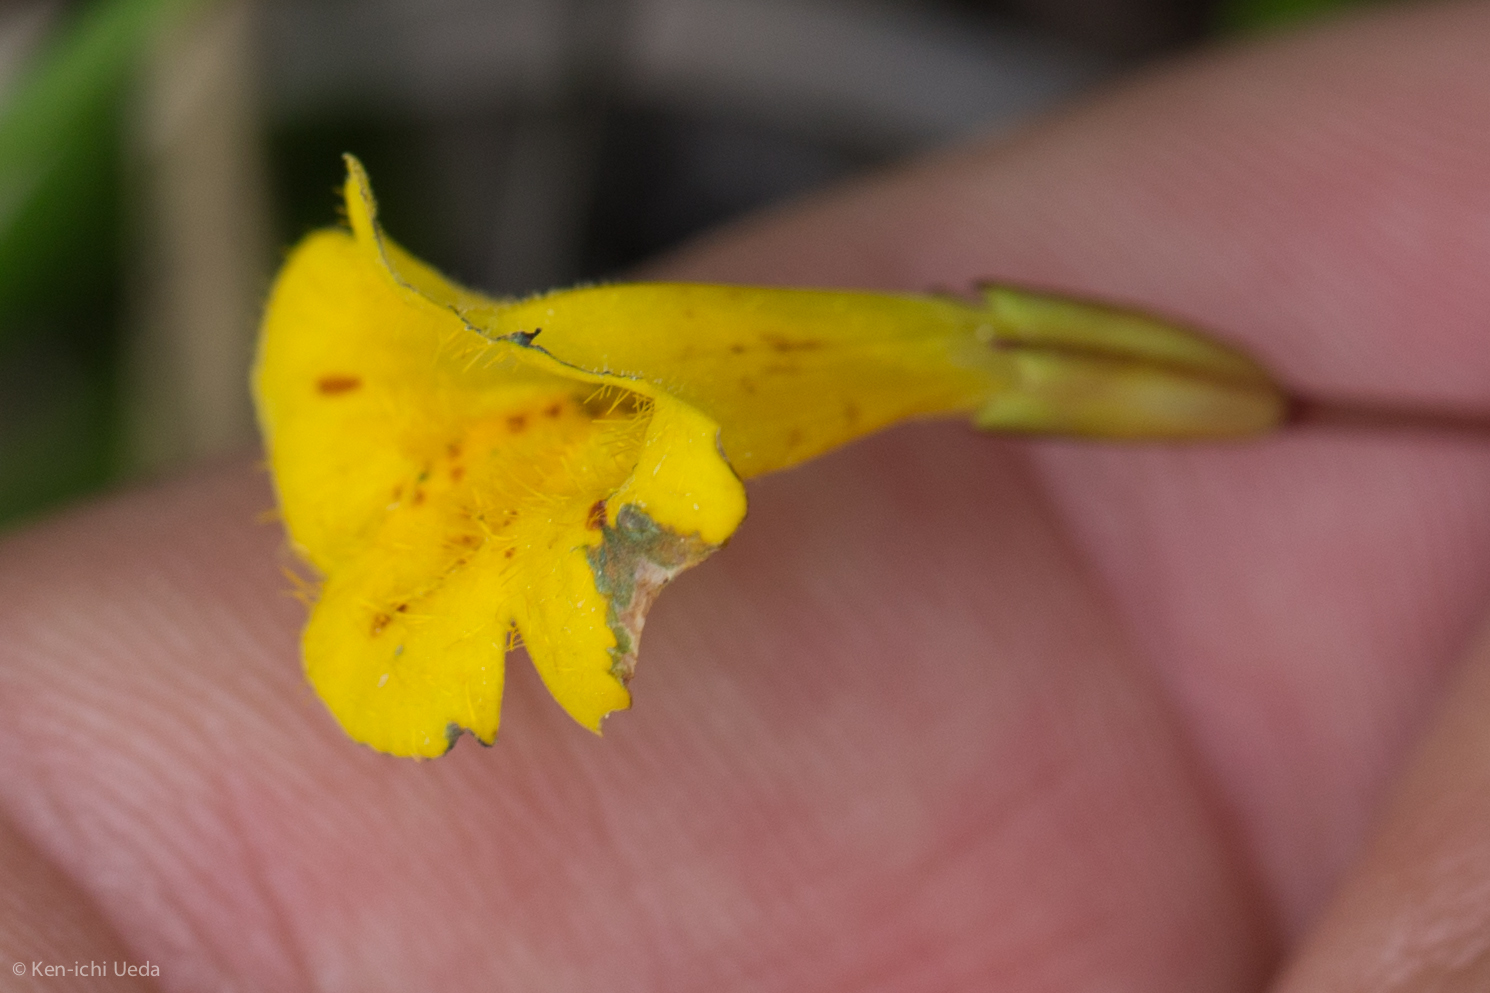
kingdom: Plantae
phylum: Tracheophyta
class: Magnoliopsida
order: Lamiales
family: Phrymaceae
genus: Erythranthe
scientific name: Erythranthe primuloides
